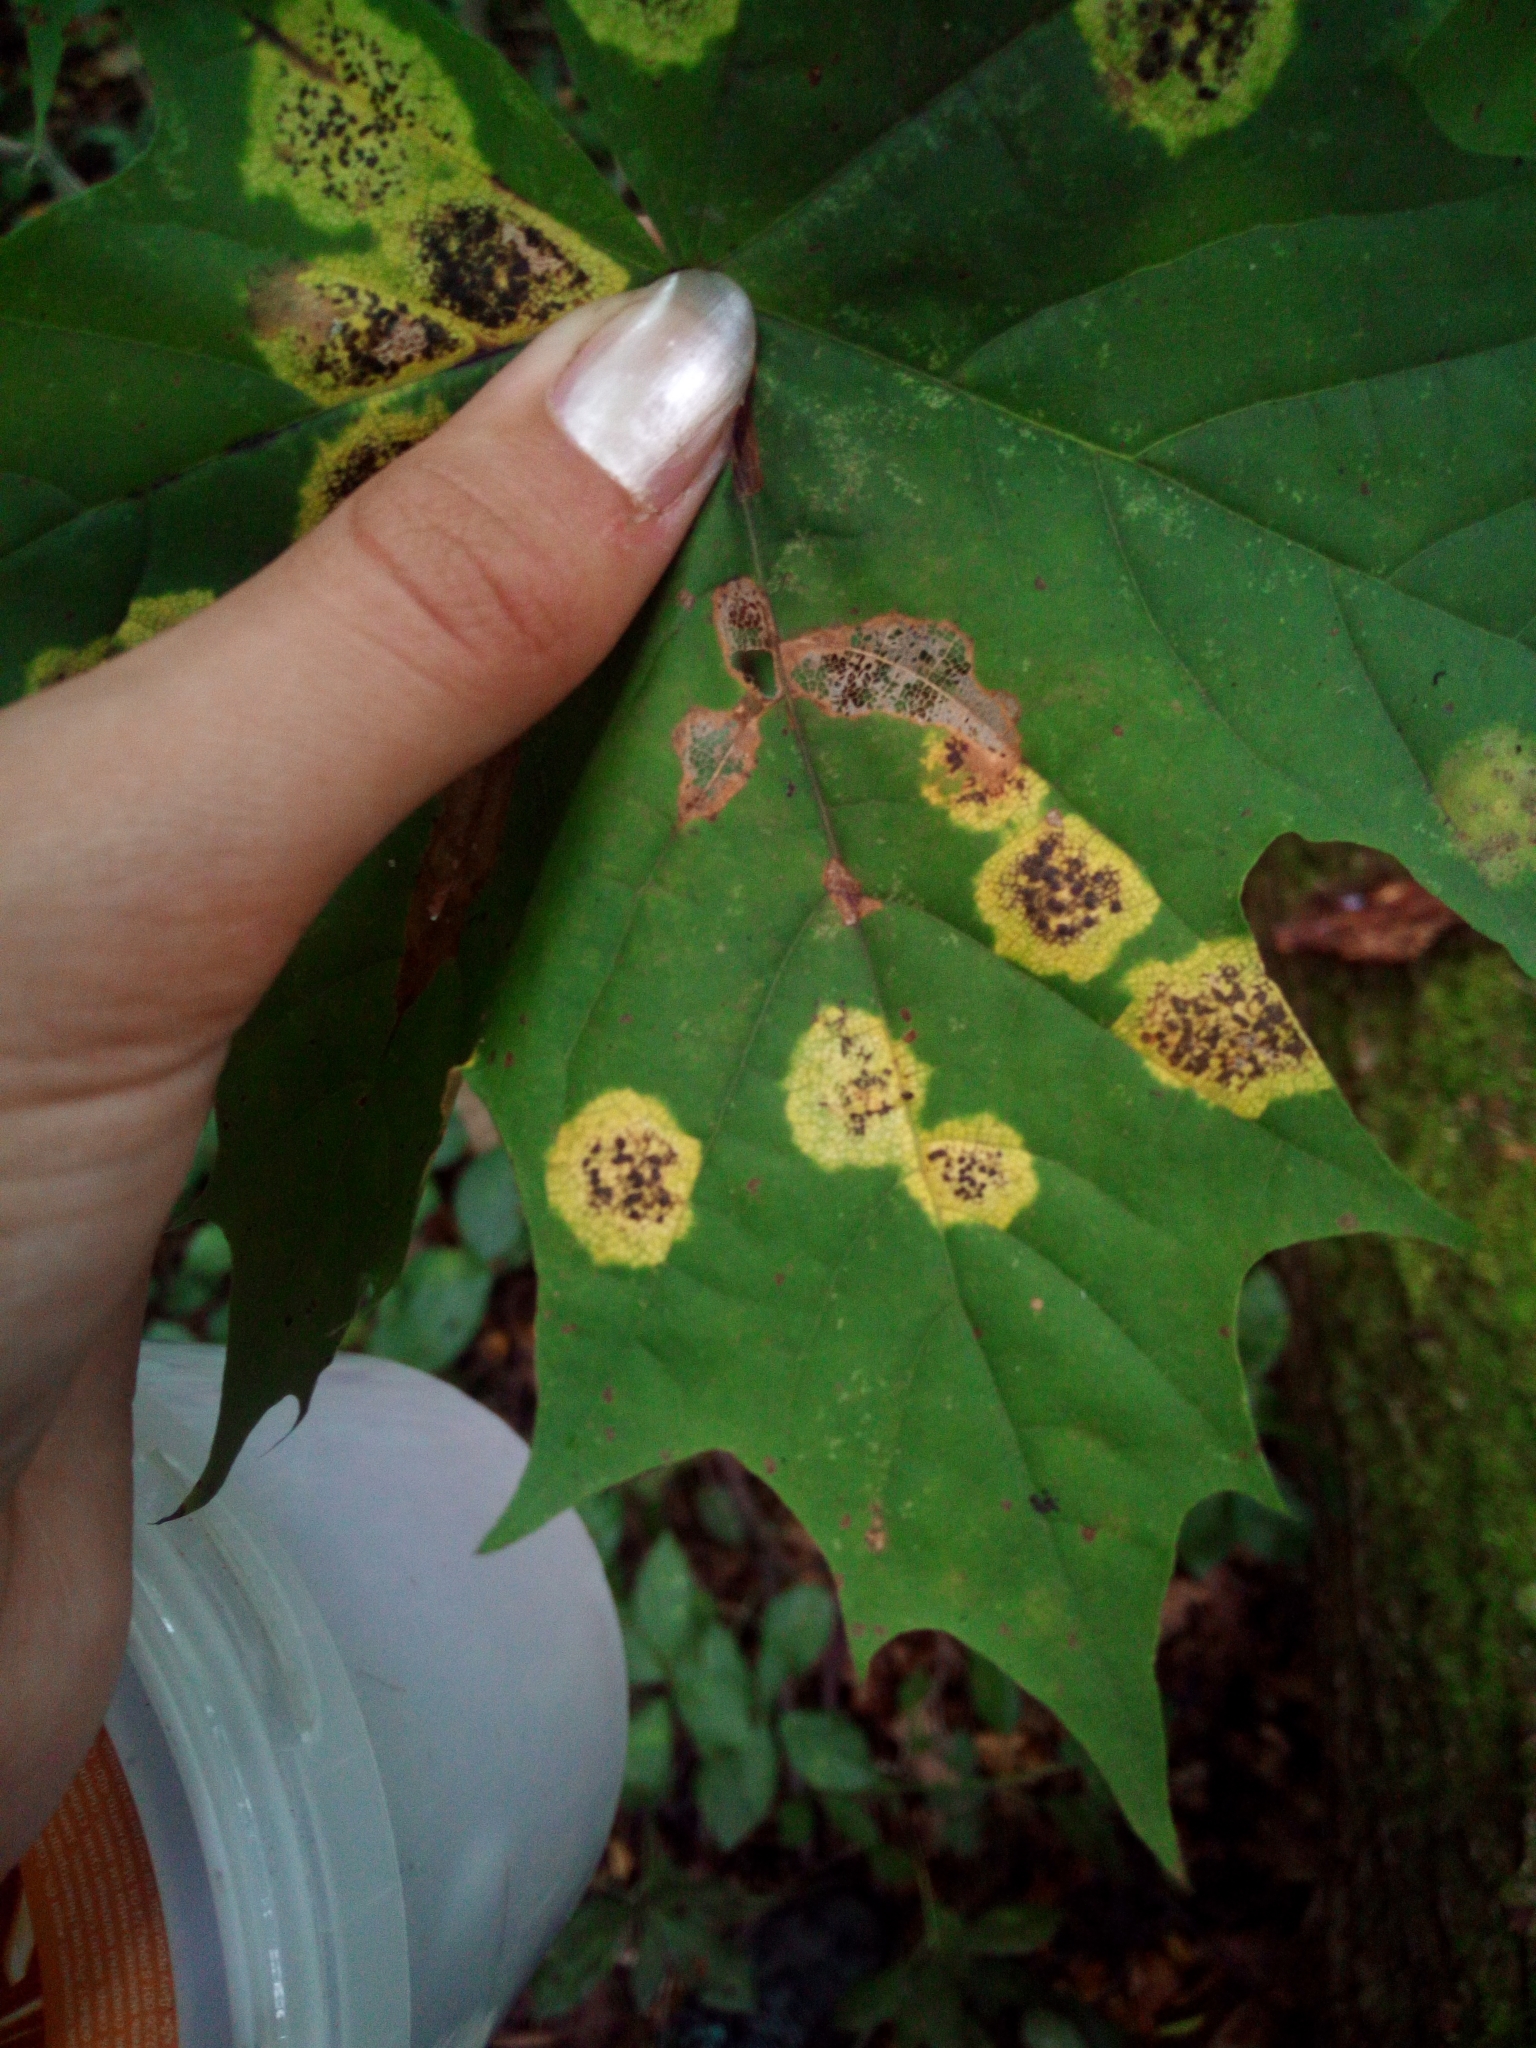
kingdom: Plantae
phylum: Tracheophyta
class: Magnoliopsida
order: Sapindales
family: Sapindaceae
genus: Acer
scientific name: Acer platanoides
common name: Norway maple
